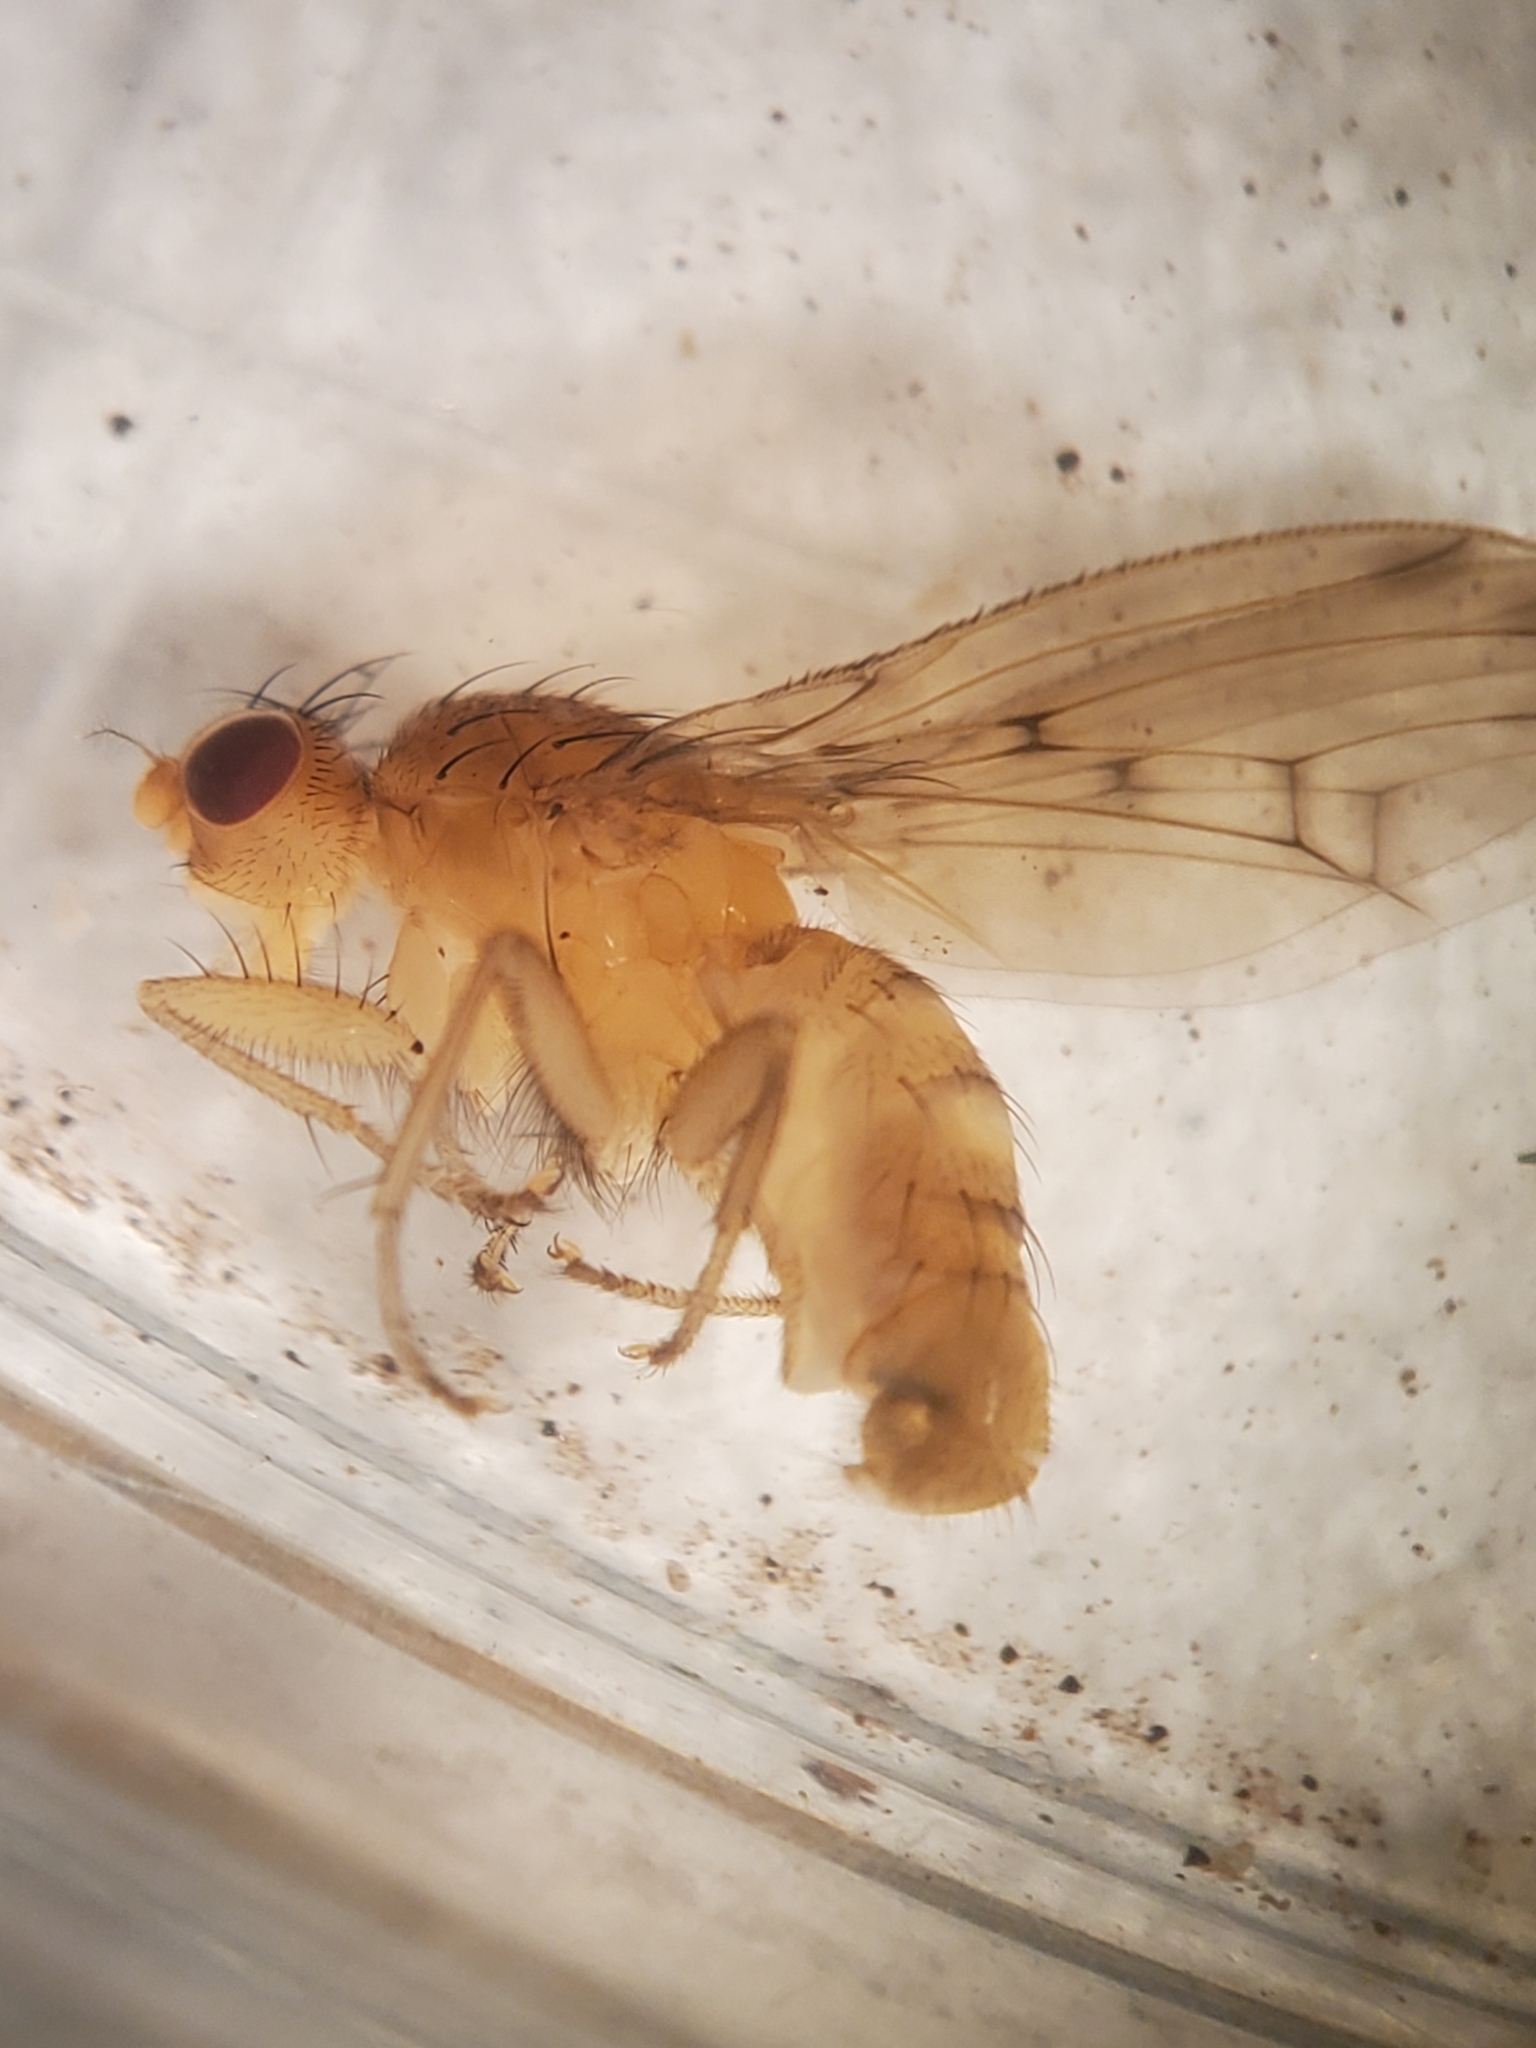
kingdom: Animalia
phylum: Arthropoda
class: Insecta
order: Diptera
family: Heleomyzidae
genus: Suillia
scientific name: Suillia plumata
